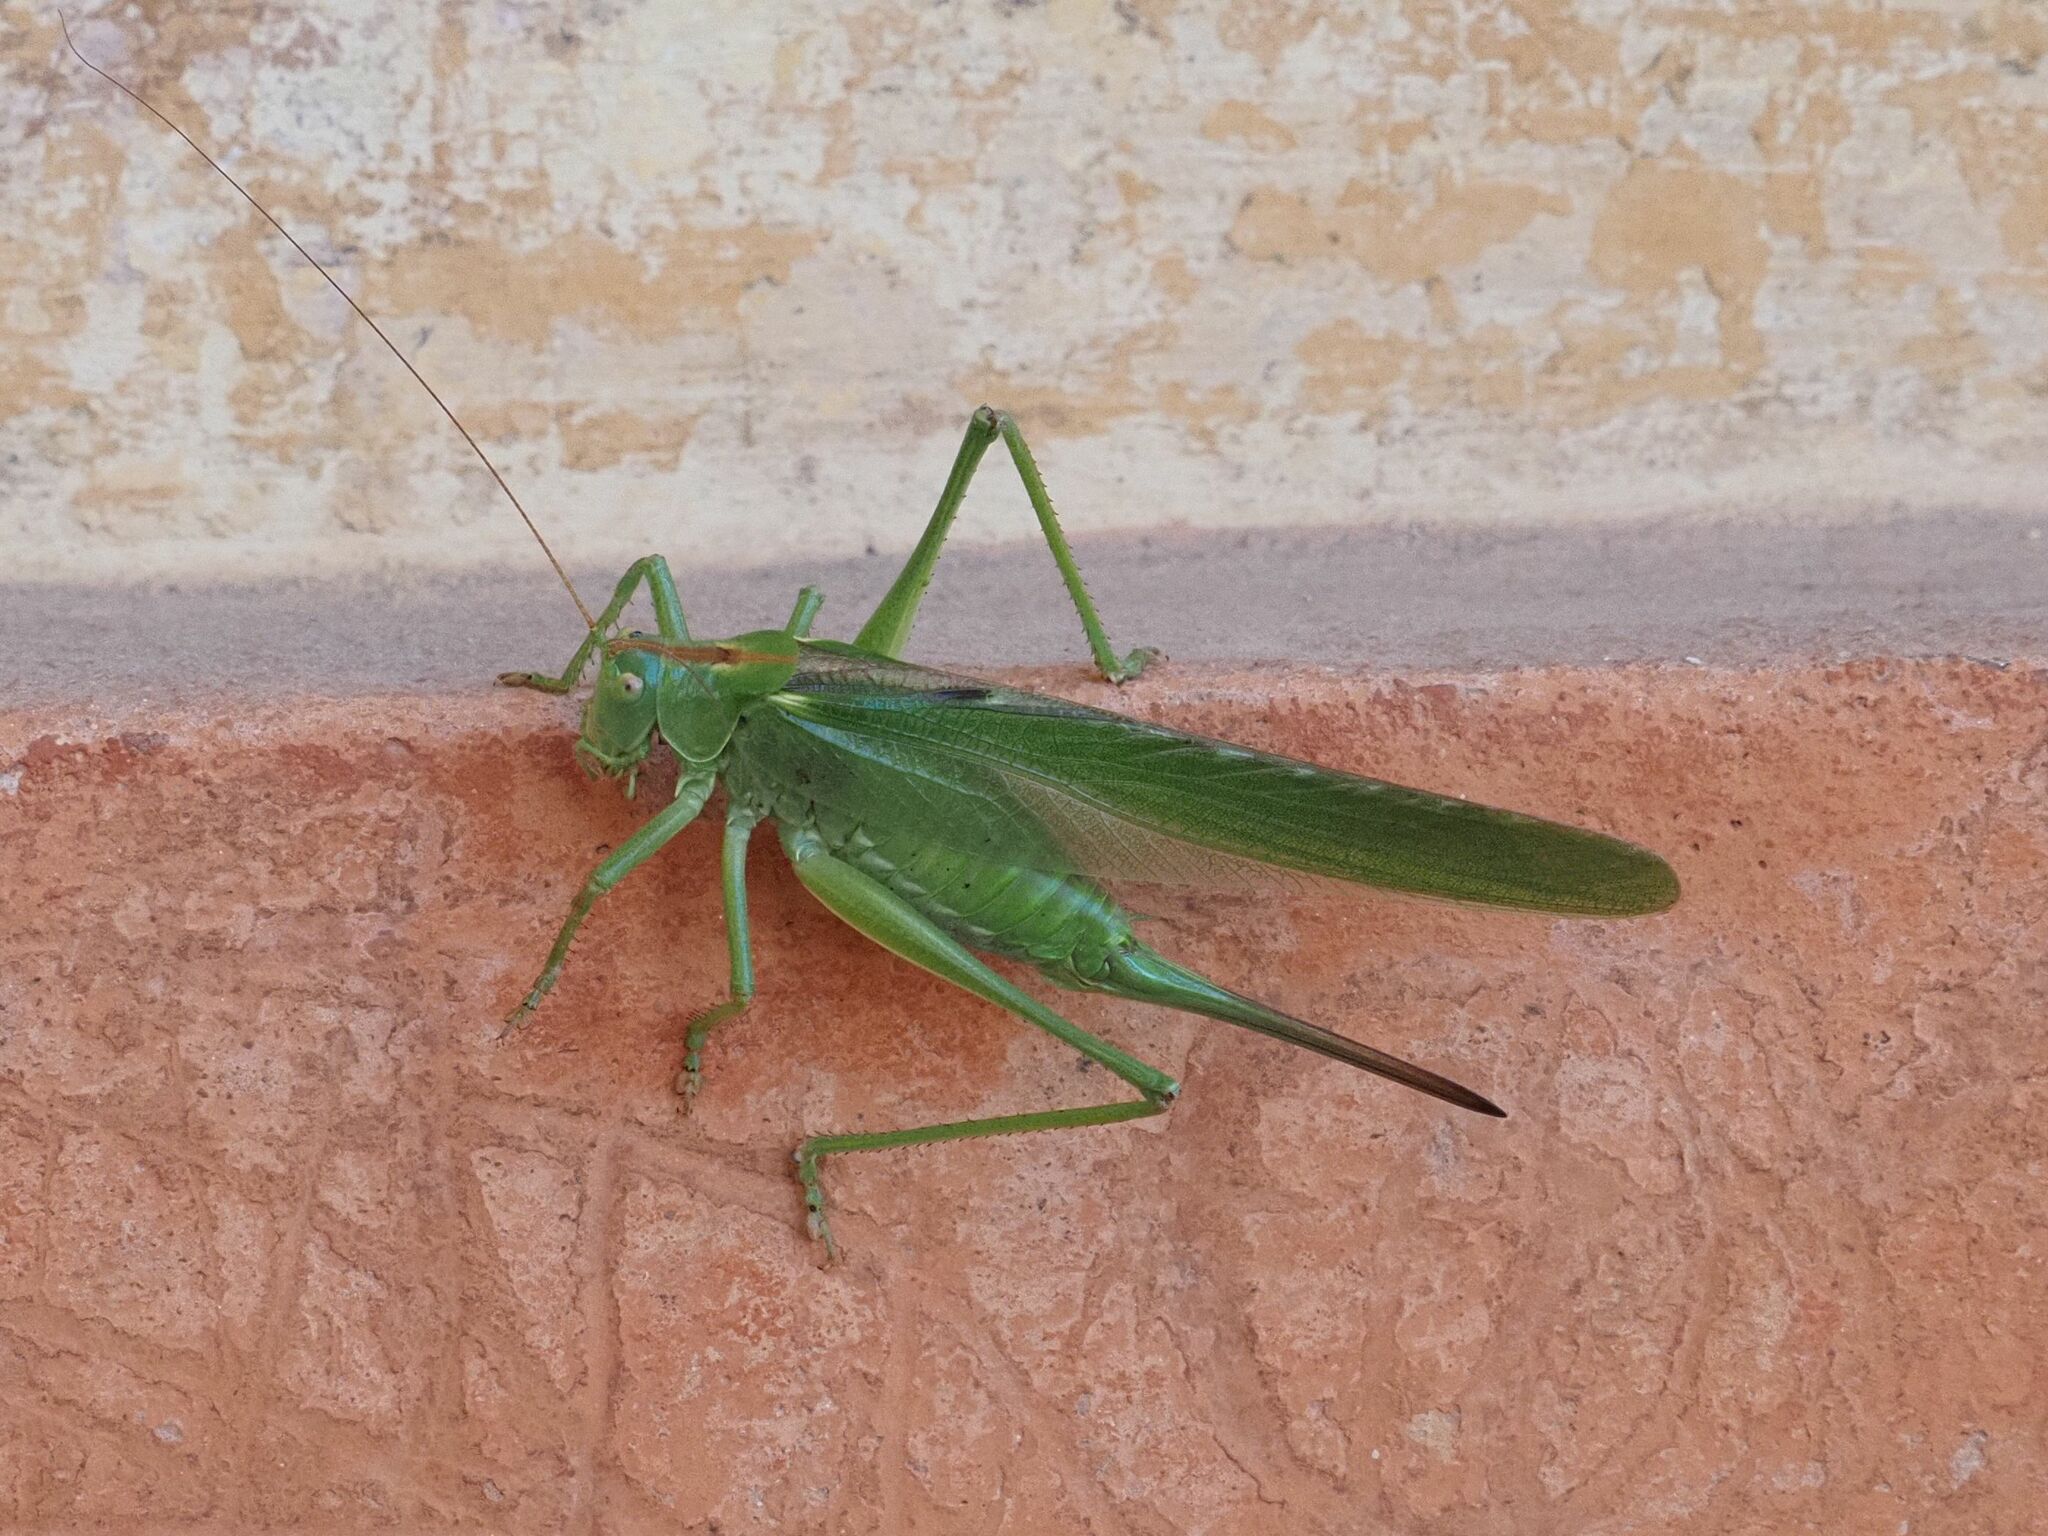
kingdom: Animalia
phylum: Arthropoda
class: Insecta
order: Orthoptera
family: Tettigoniidae
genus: Tettigonia
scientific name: Tettigonia viridissima
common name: Great green bush-cricket
